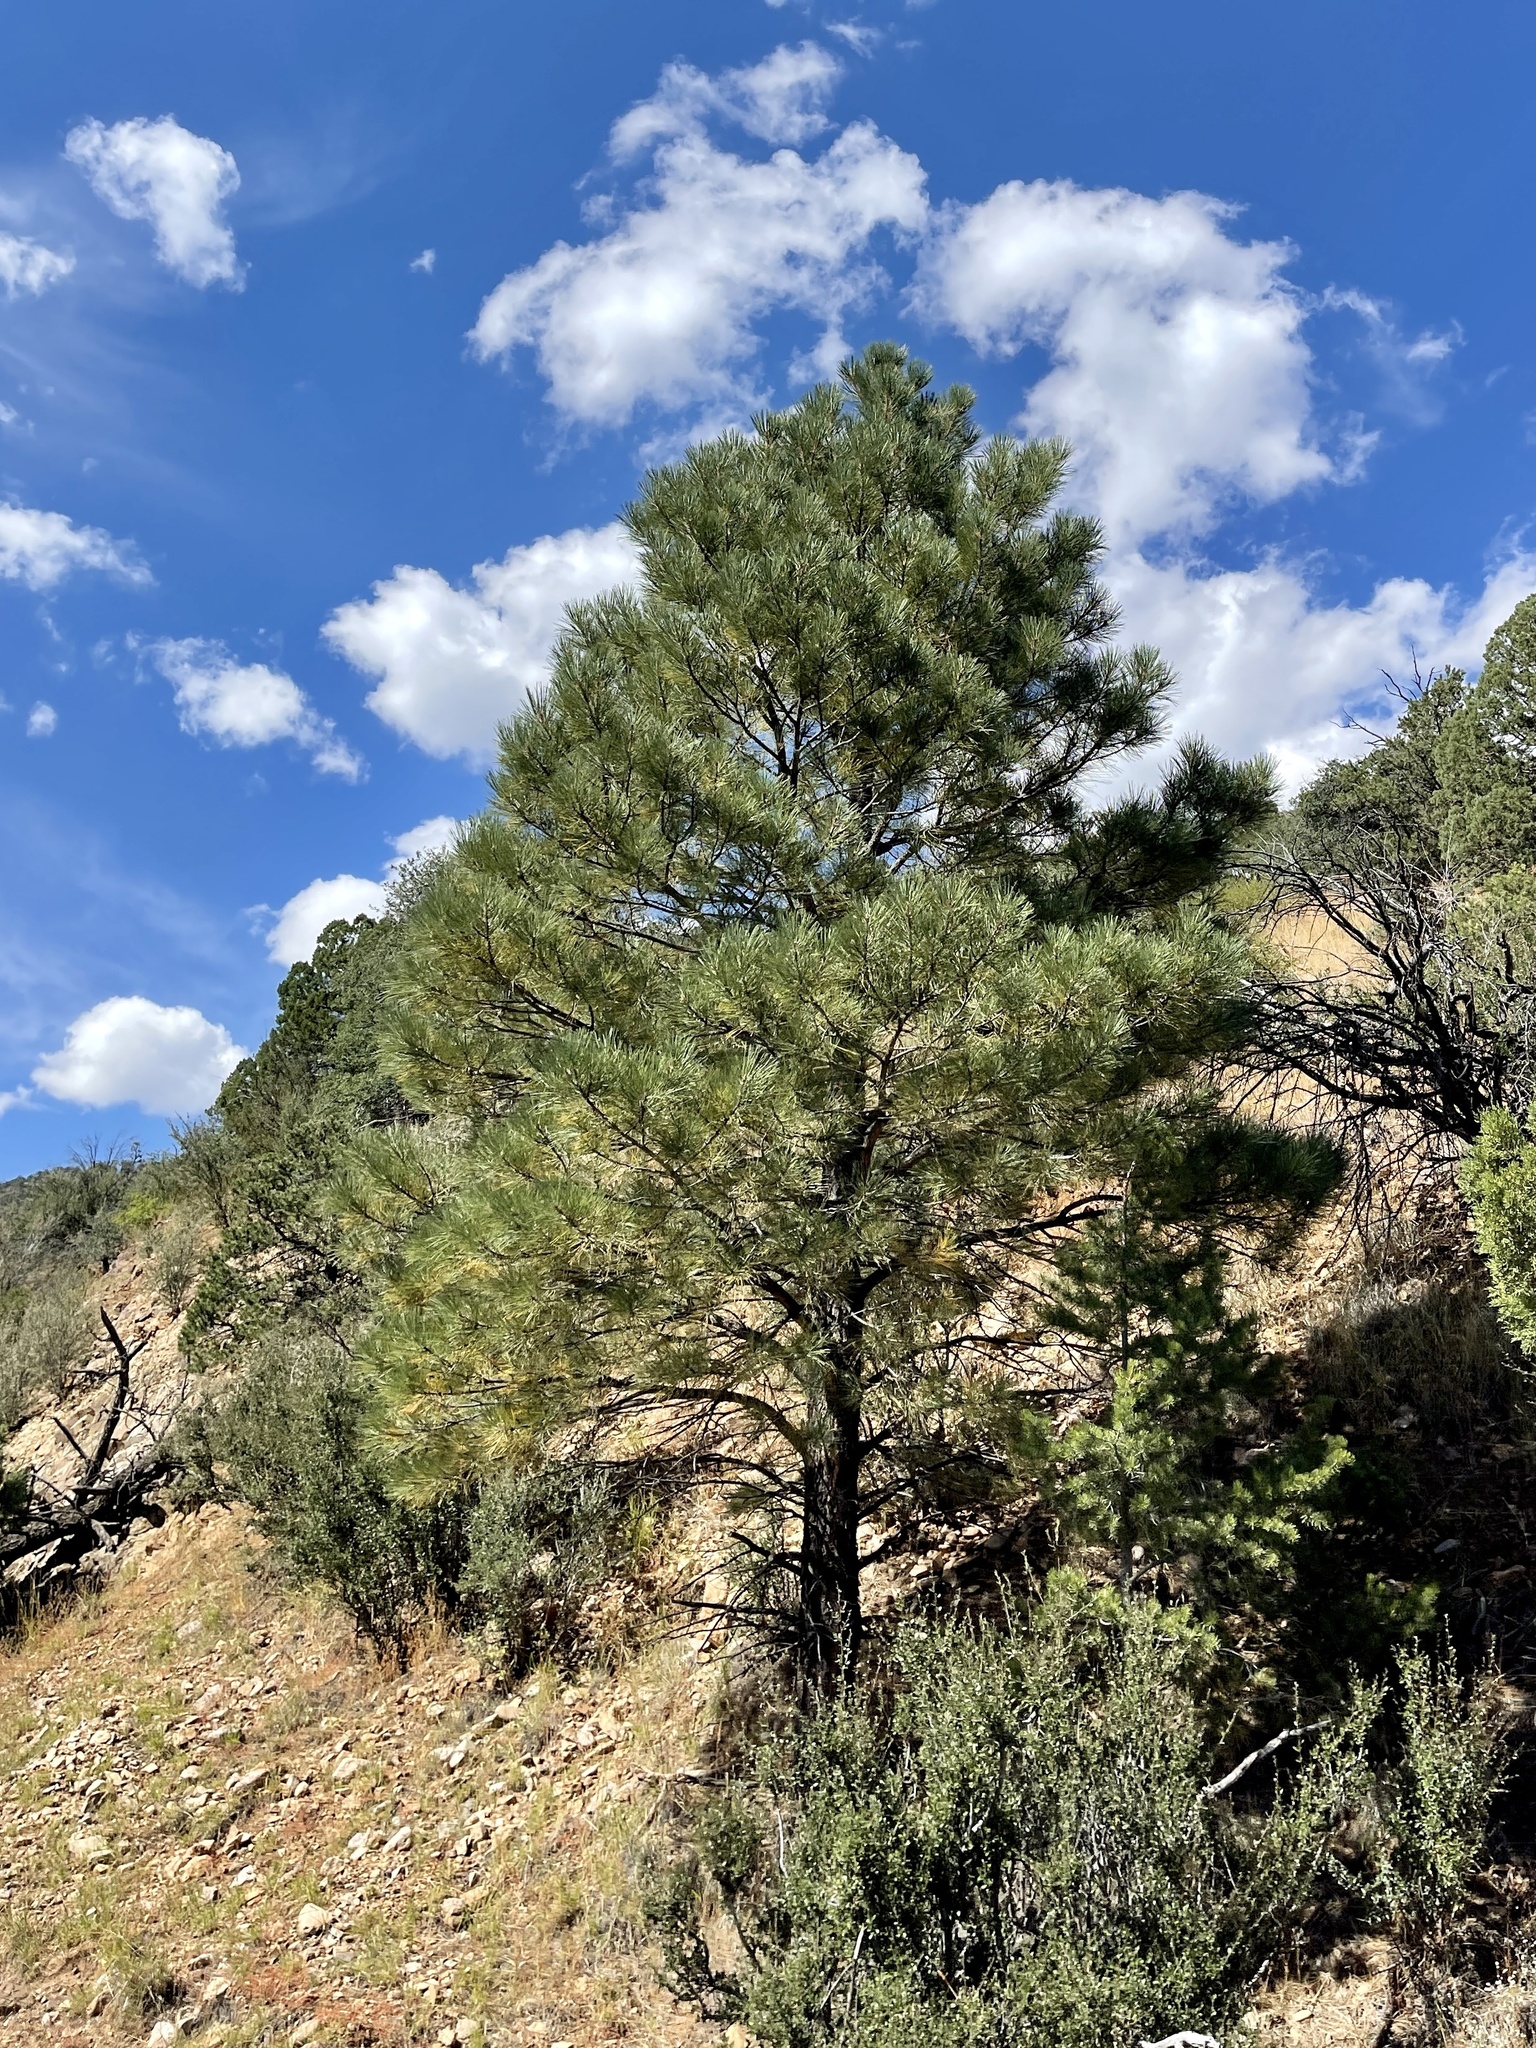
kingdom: Plantae
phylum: Tracheophyta
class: Pinopsida
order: Pinales
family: Pinaceae
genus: Pinus
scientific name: Pinus ponderosa
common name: Western yellow-pine
